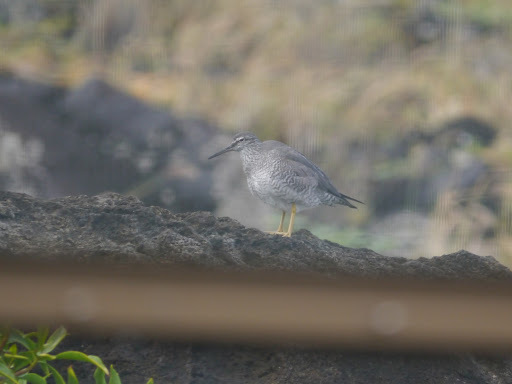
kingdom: Animalia
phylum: Chordata
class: Aves
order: Charadriiformes
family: Scolopacidae
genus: Tringa
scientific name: Tringa incana
